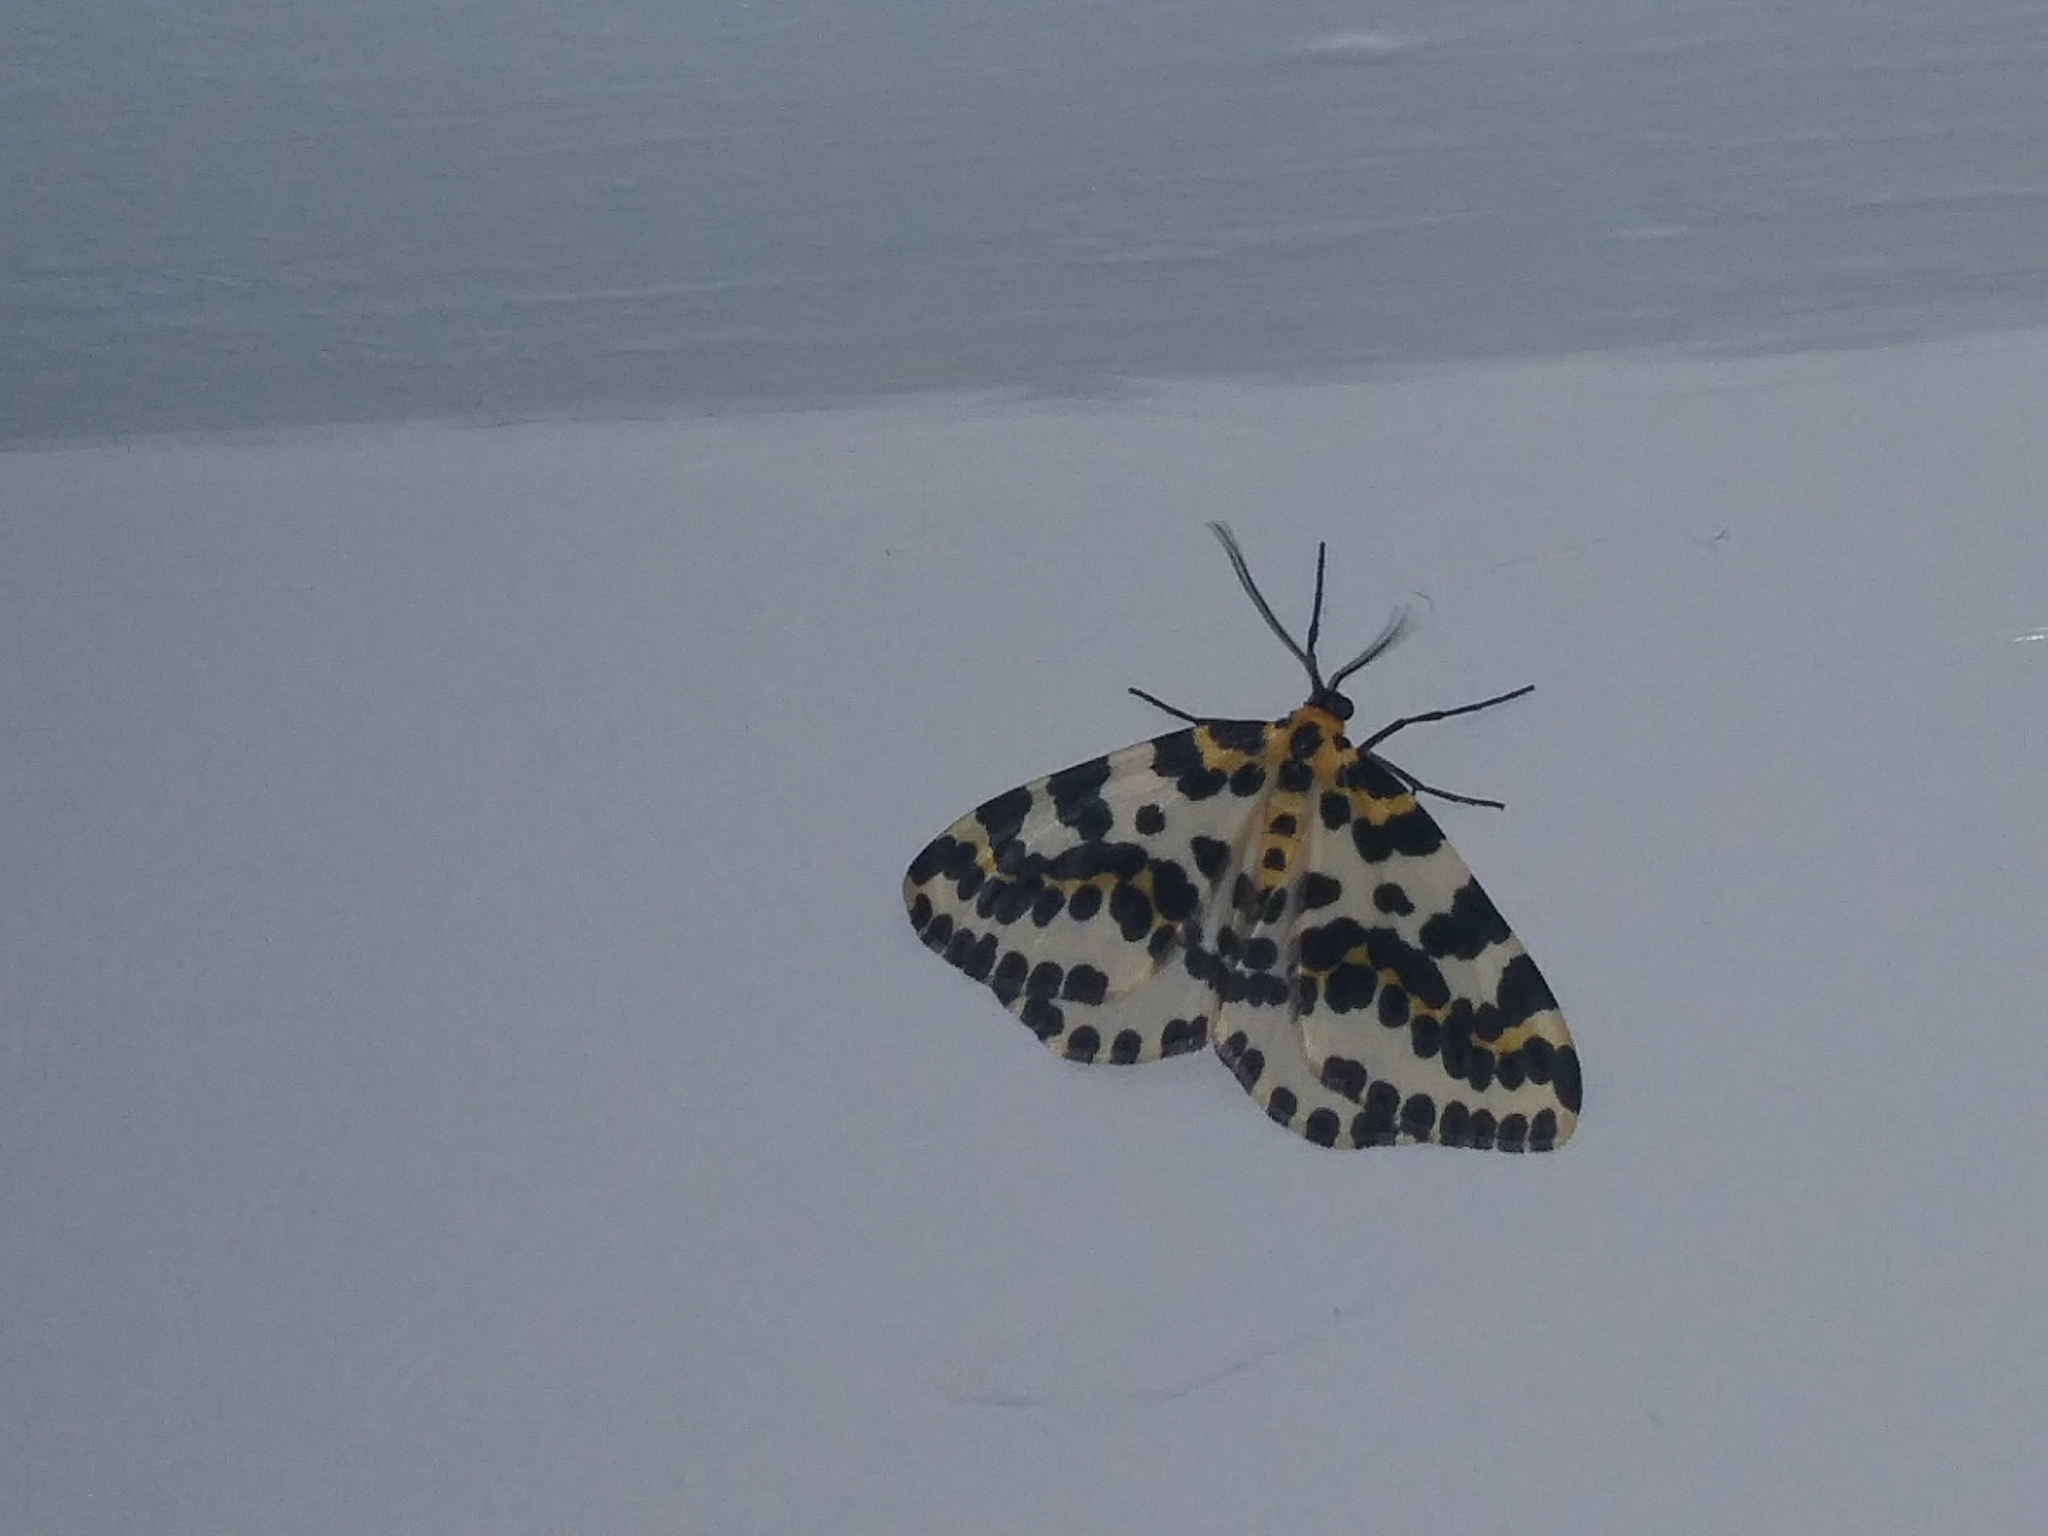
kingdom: Animalia
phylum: Arthropoda
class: Insecta
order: Lepidoptera
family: Geometridae
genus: Abraxas
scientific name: Abraxas grossulariata
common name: Magpie
